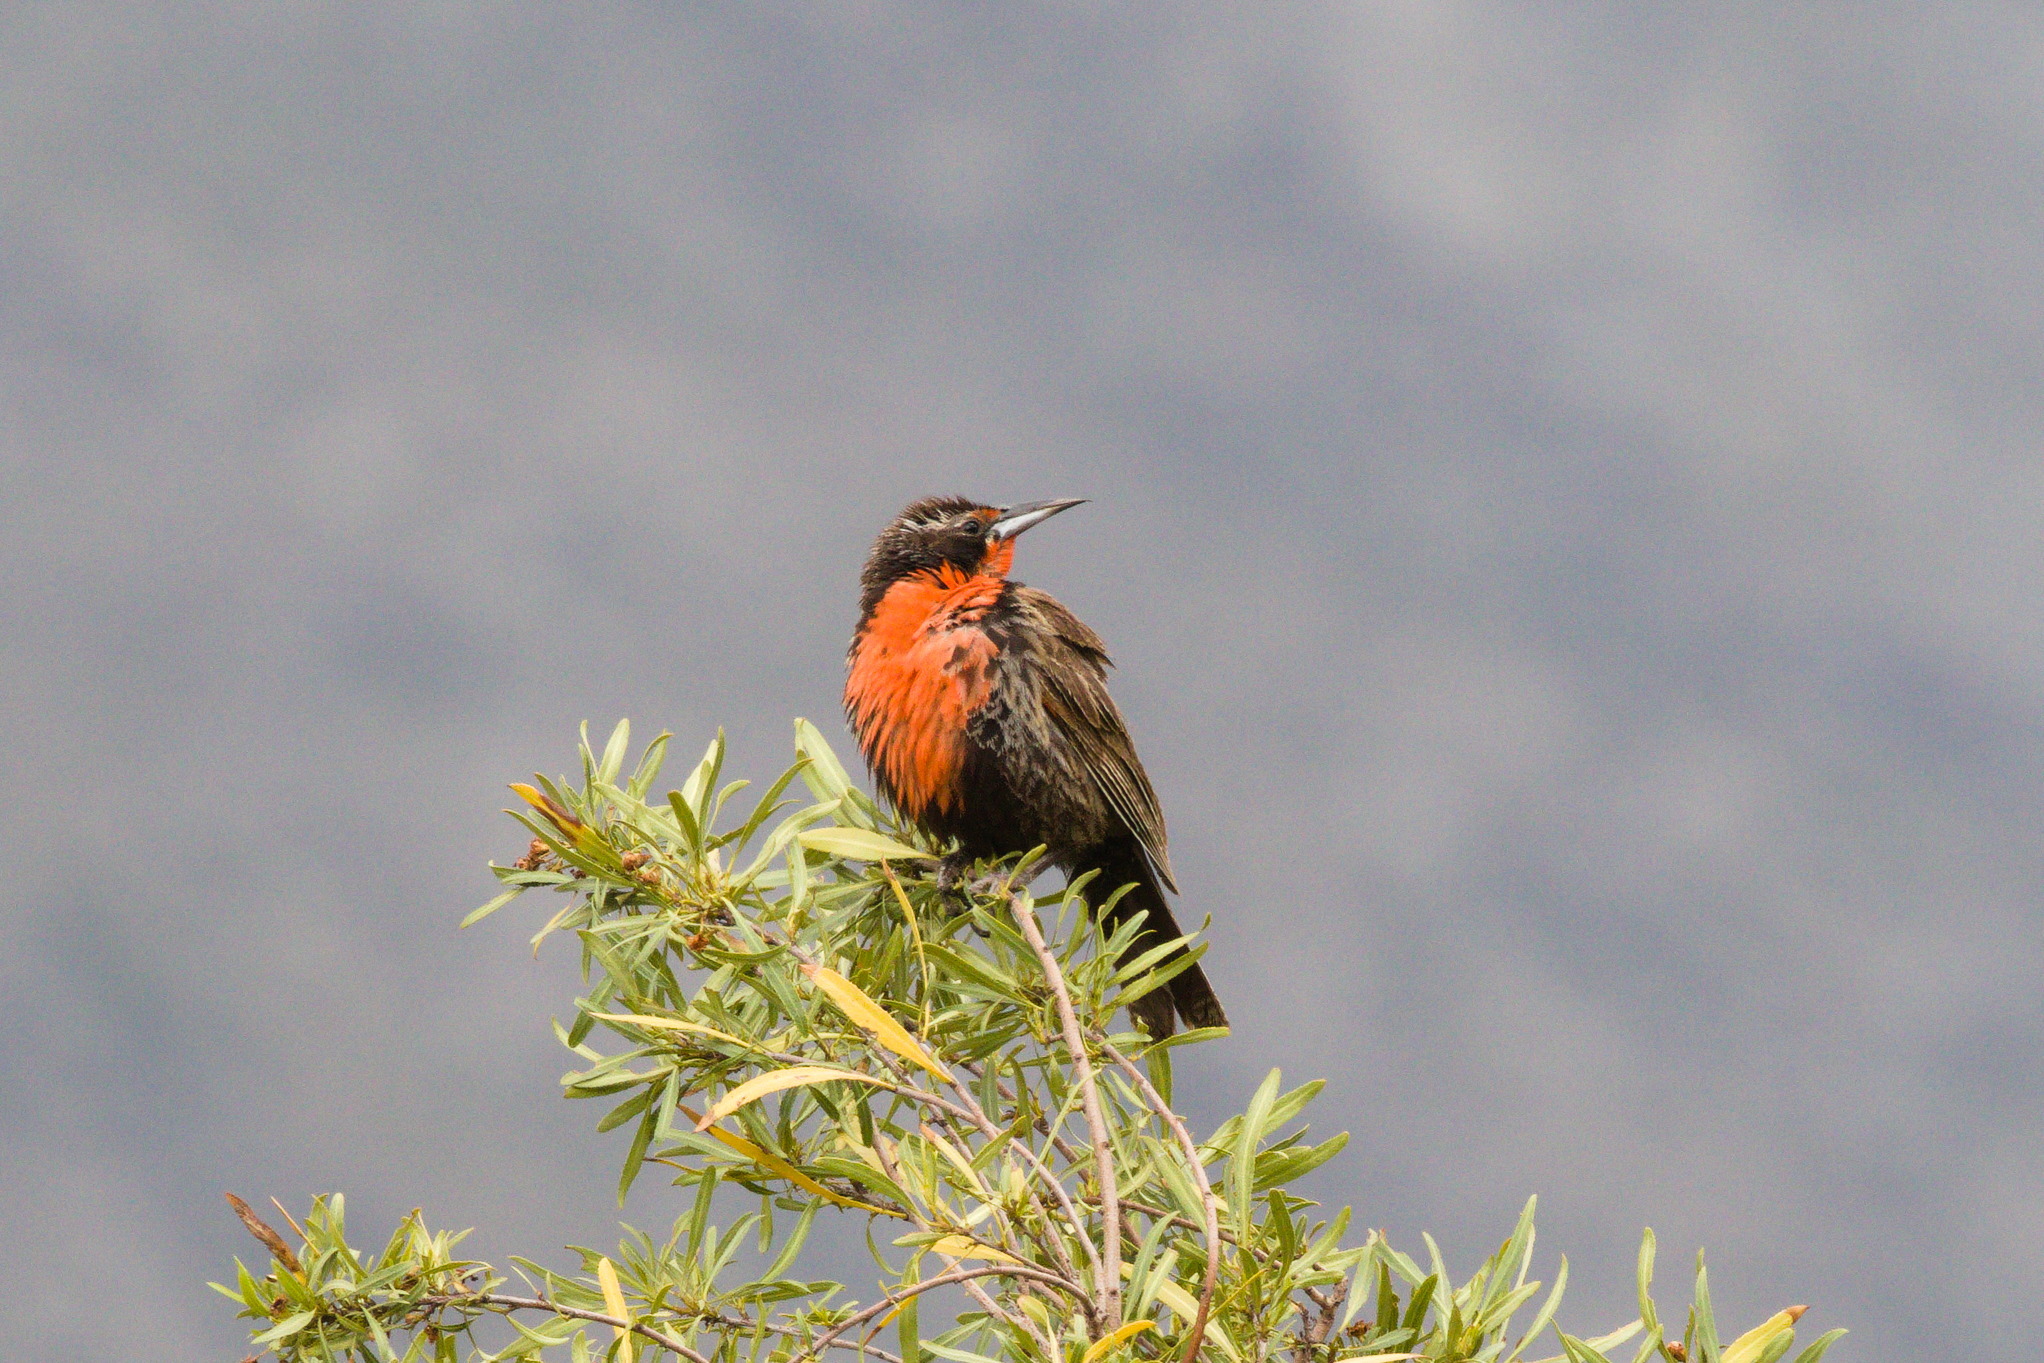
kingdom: Animalia
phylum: Chordata
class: Aves
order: Passeriformes
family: Icteridae
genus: Sturnella
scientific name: Sturnella loyca
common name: Long-tailed meadowlark
